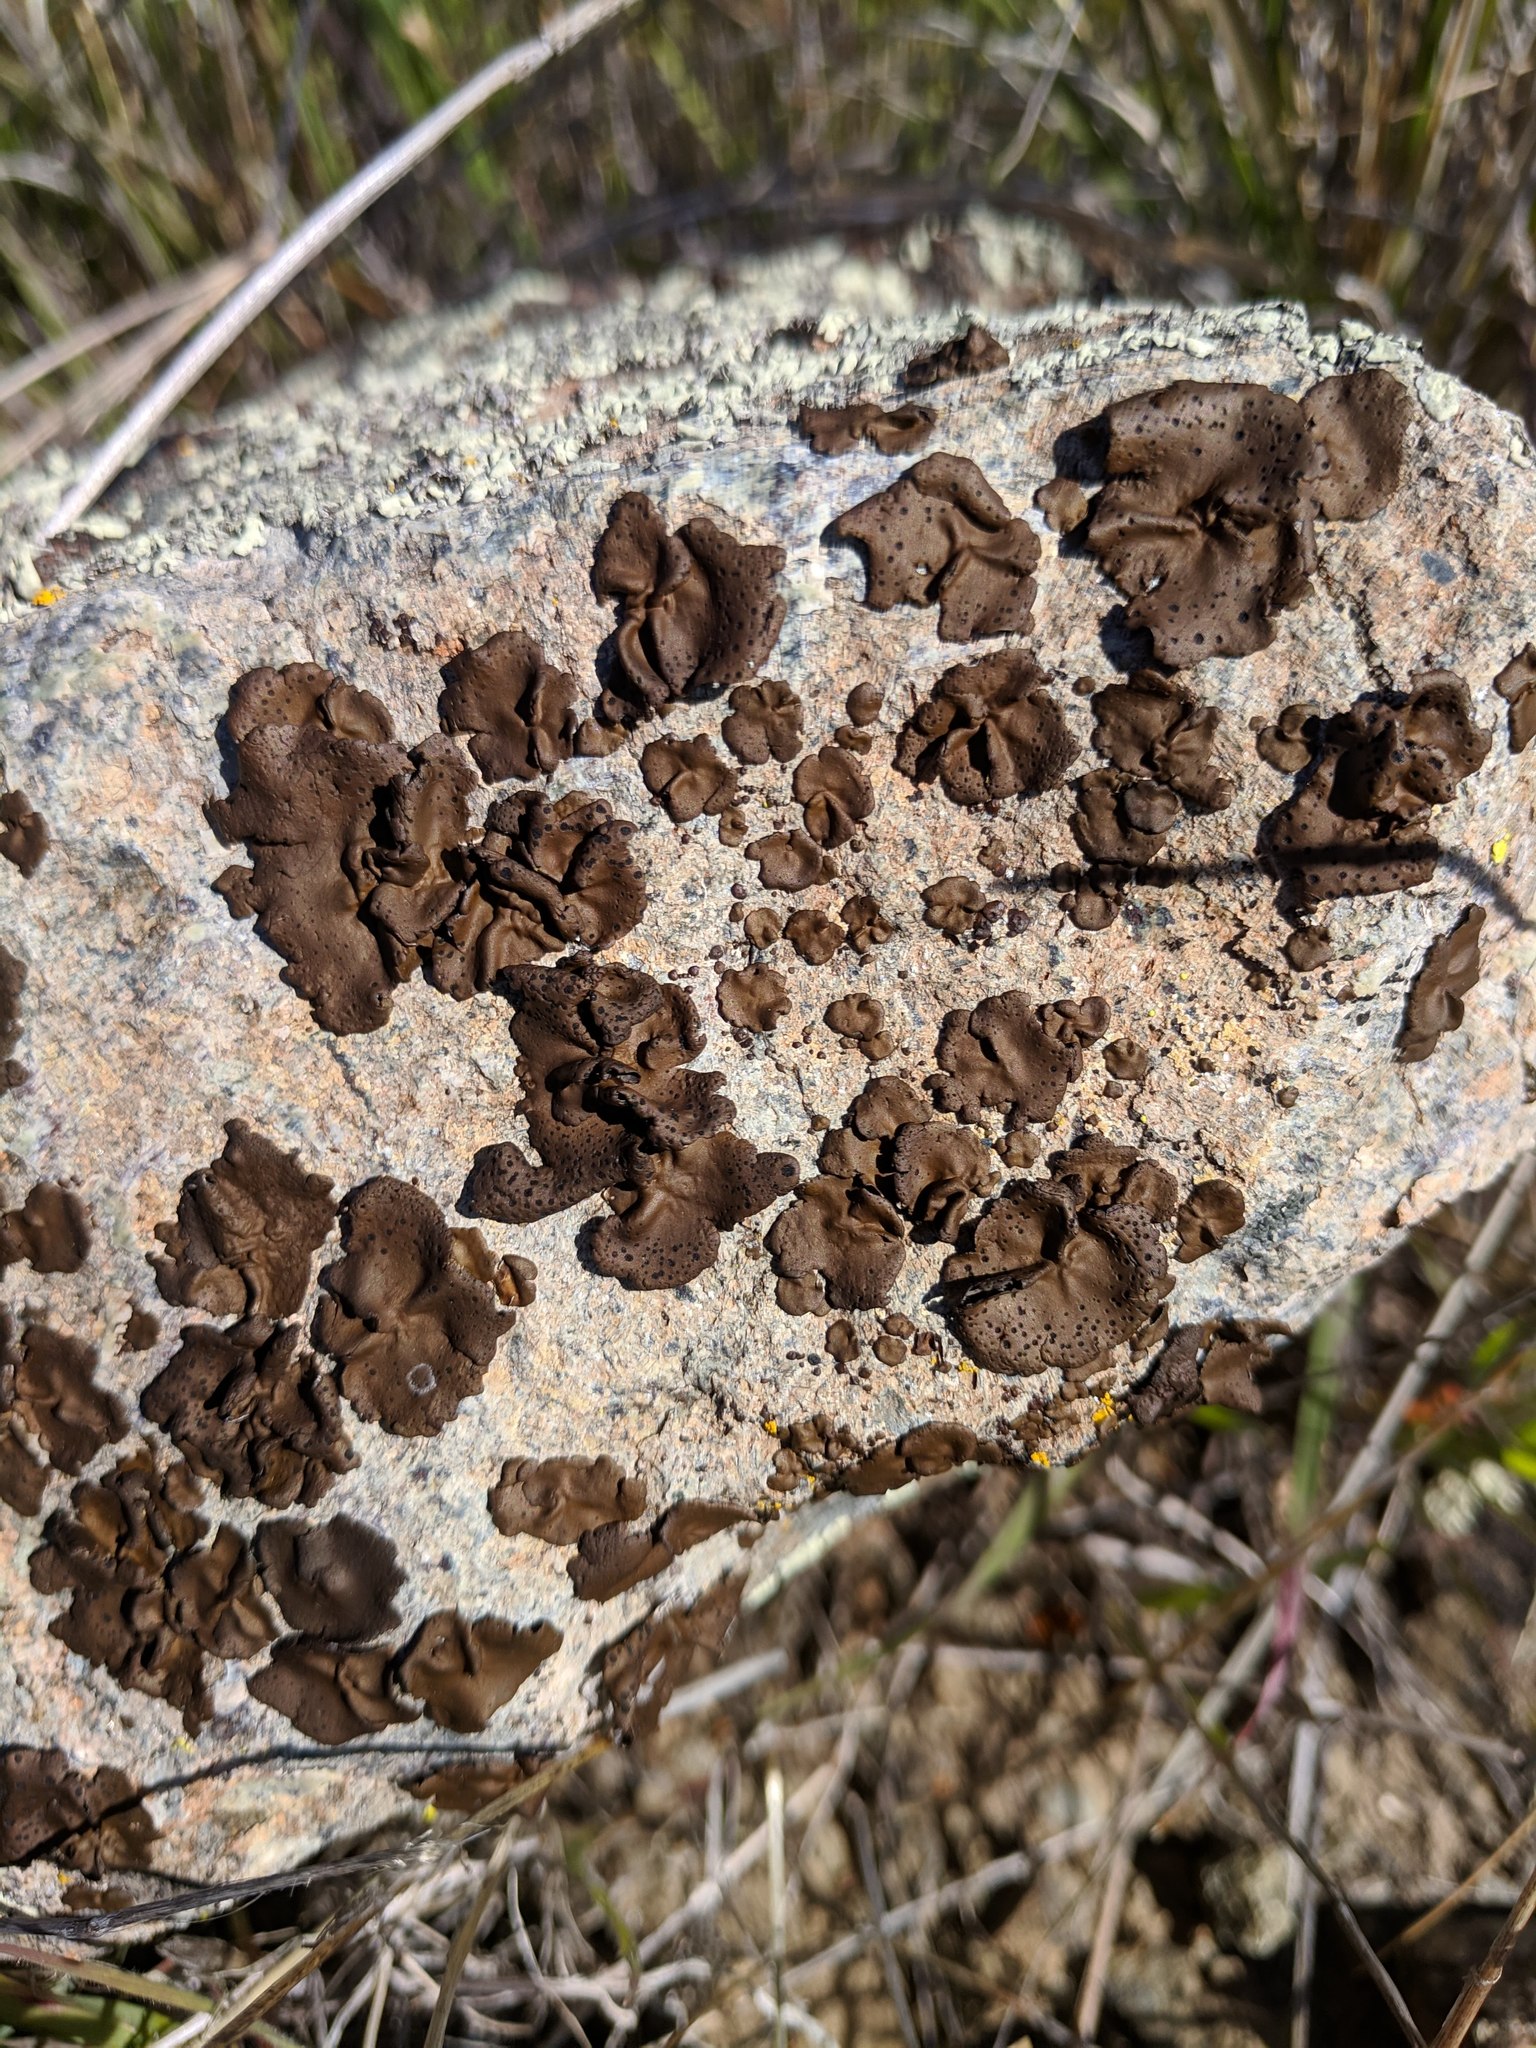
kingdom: Fungi
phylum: Ascomycota
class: Lecanoromycetes
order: Umbilicariales
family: Umbilicariaceae
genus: Umbilicaria
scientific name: Umbilicaria phaea
